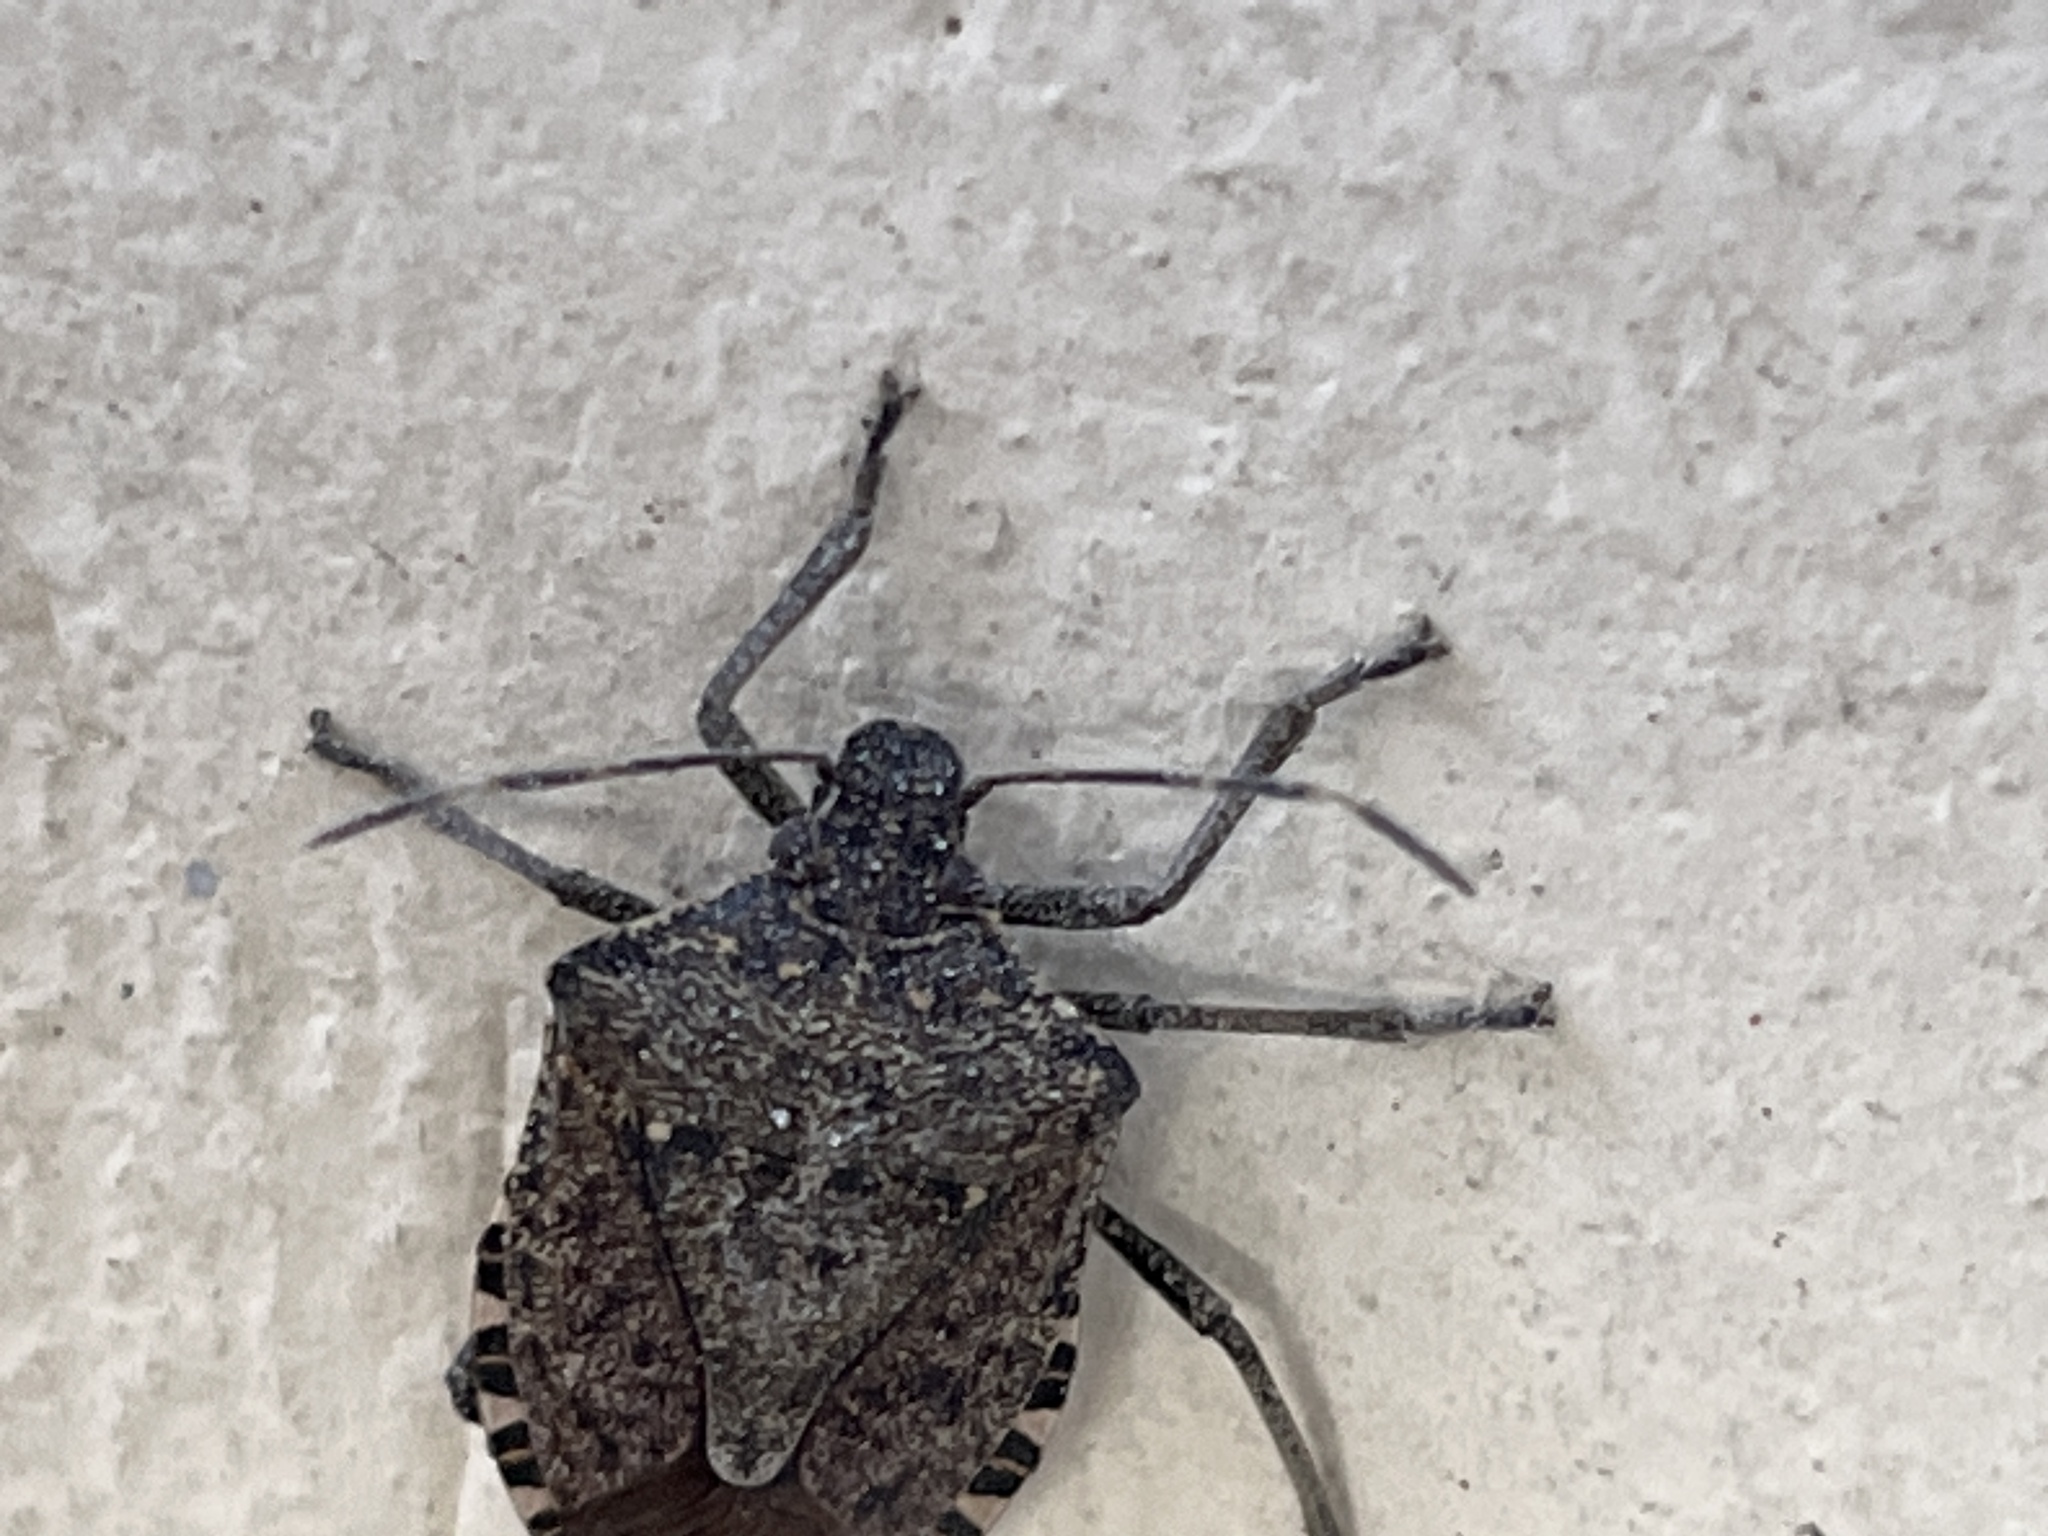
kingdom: Animalia
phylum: Arthropoda
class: Insecta
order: Hemiptera
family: Pentatomidae
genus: Halyomorpha
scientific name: Halyomorpha halys
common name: Brown marmorated stink bug
